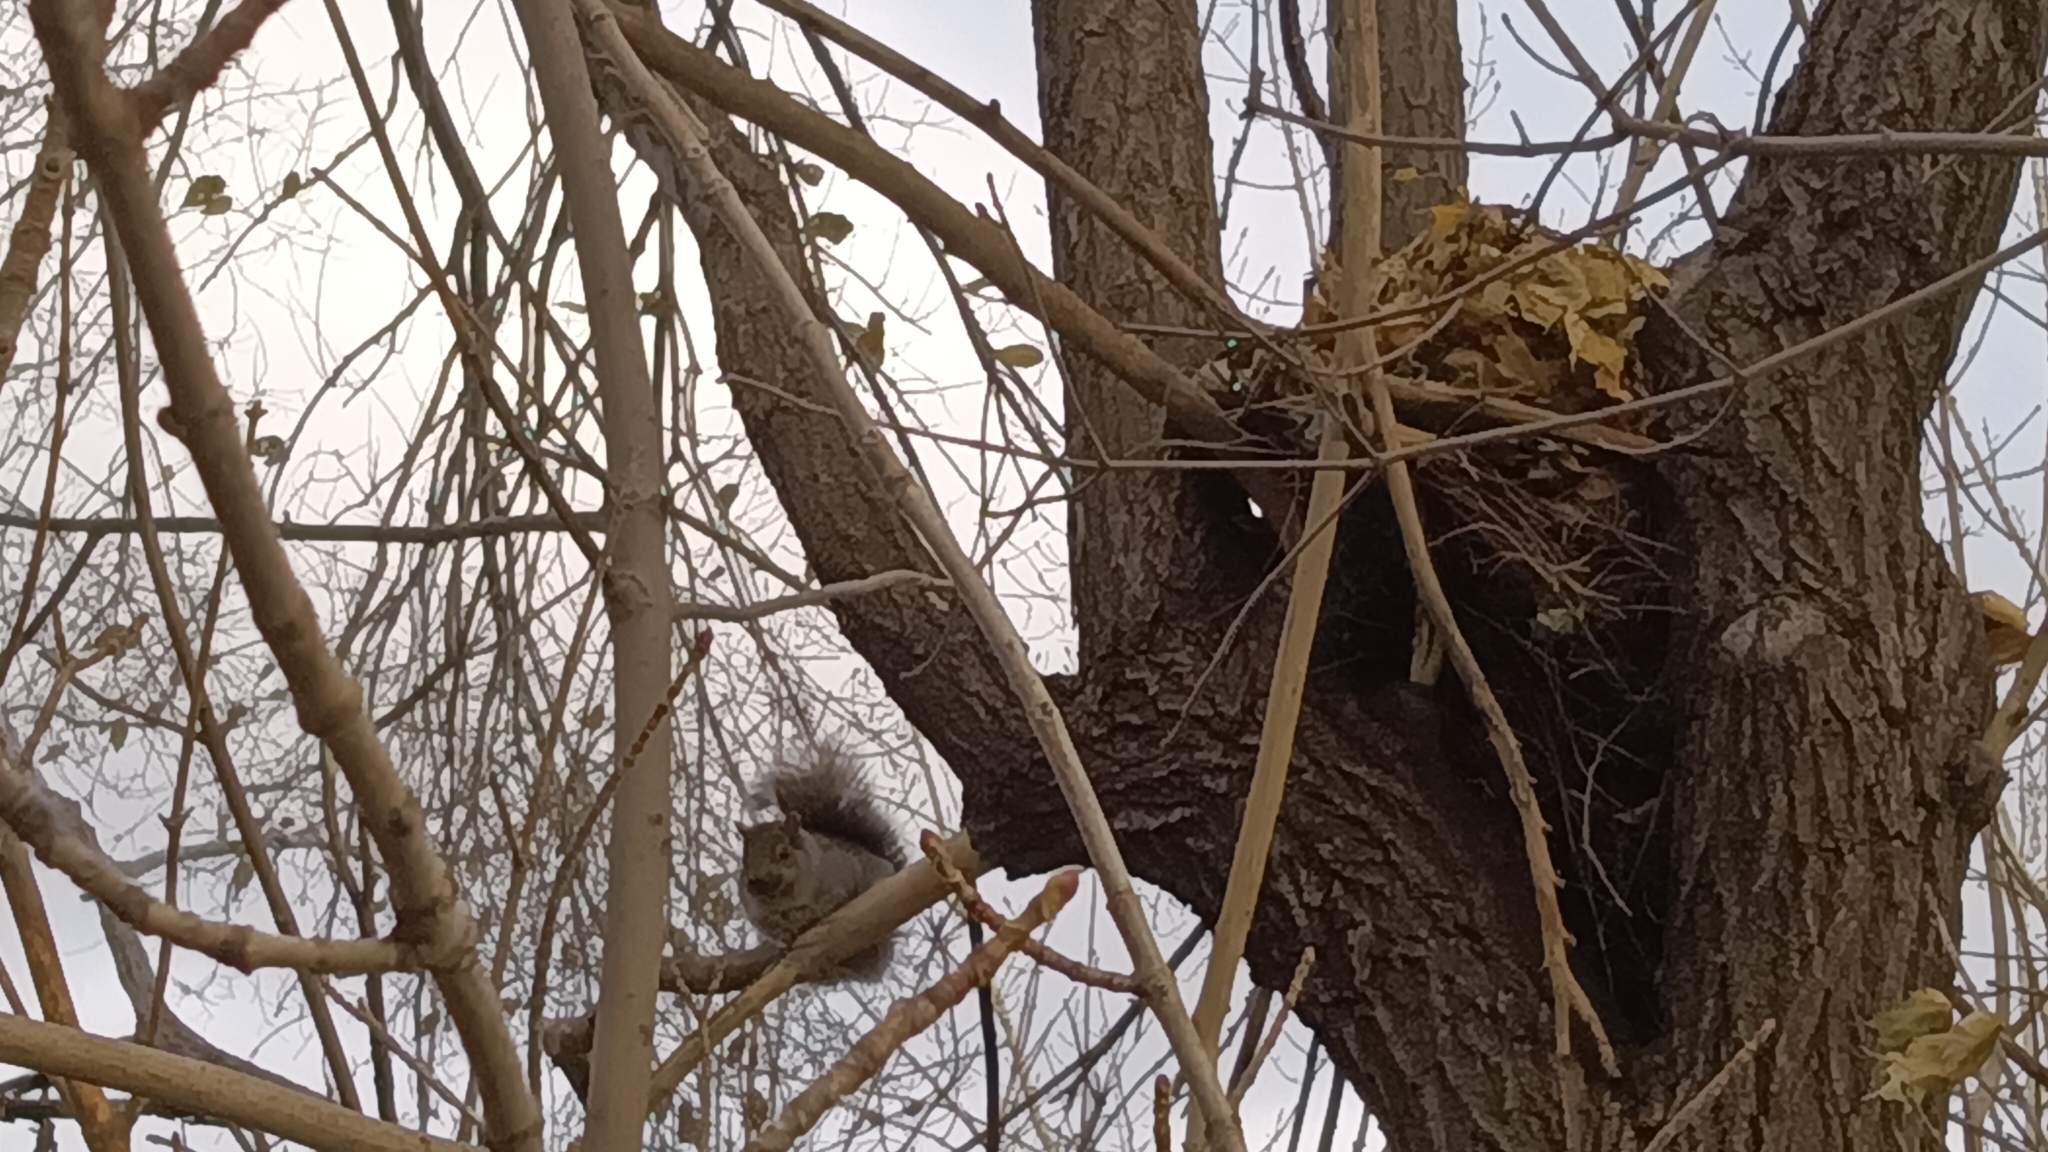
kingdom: Animalia
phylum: Chordata
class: Mammalia
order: Rodentia
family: Sciuridae
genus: Sciurus
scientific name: Sciurus carolinensis
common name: Eastern gray squirrel
